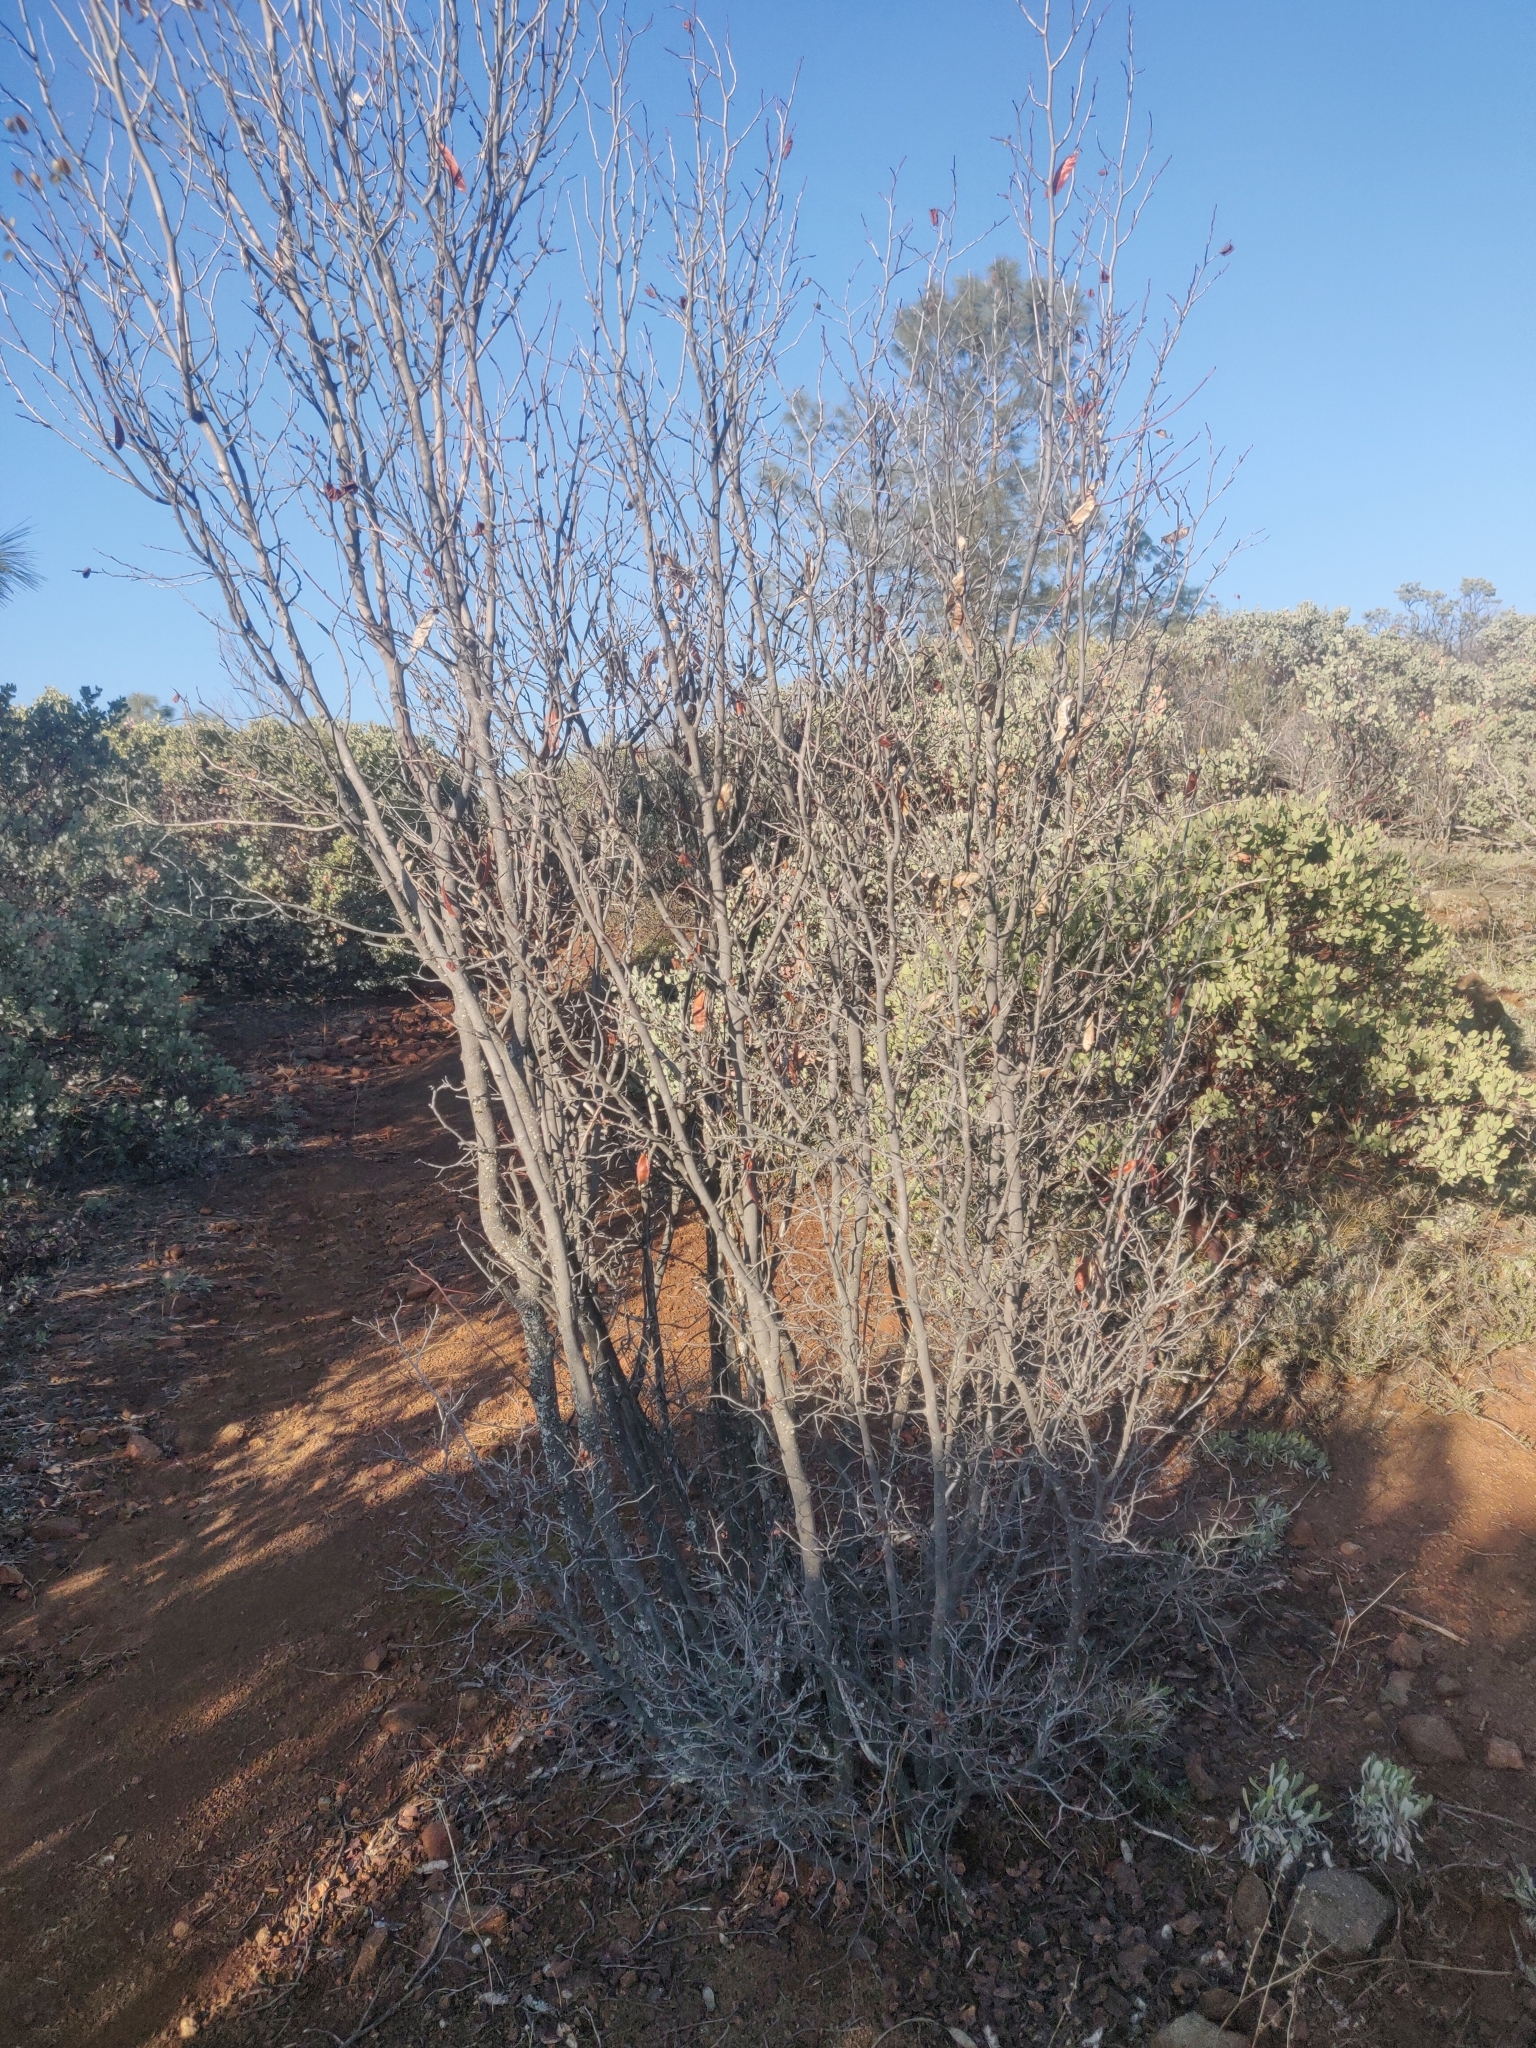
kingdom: Plantae
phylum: Tracheophyta
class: Magnoliopsida
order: Fabales
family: Fabaceae
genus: Cercis
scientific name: Cercis occidentalis
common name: California redbud
